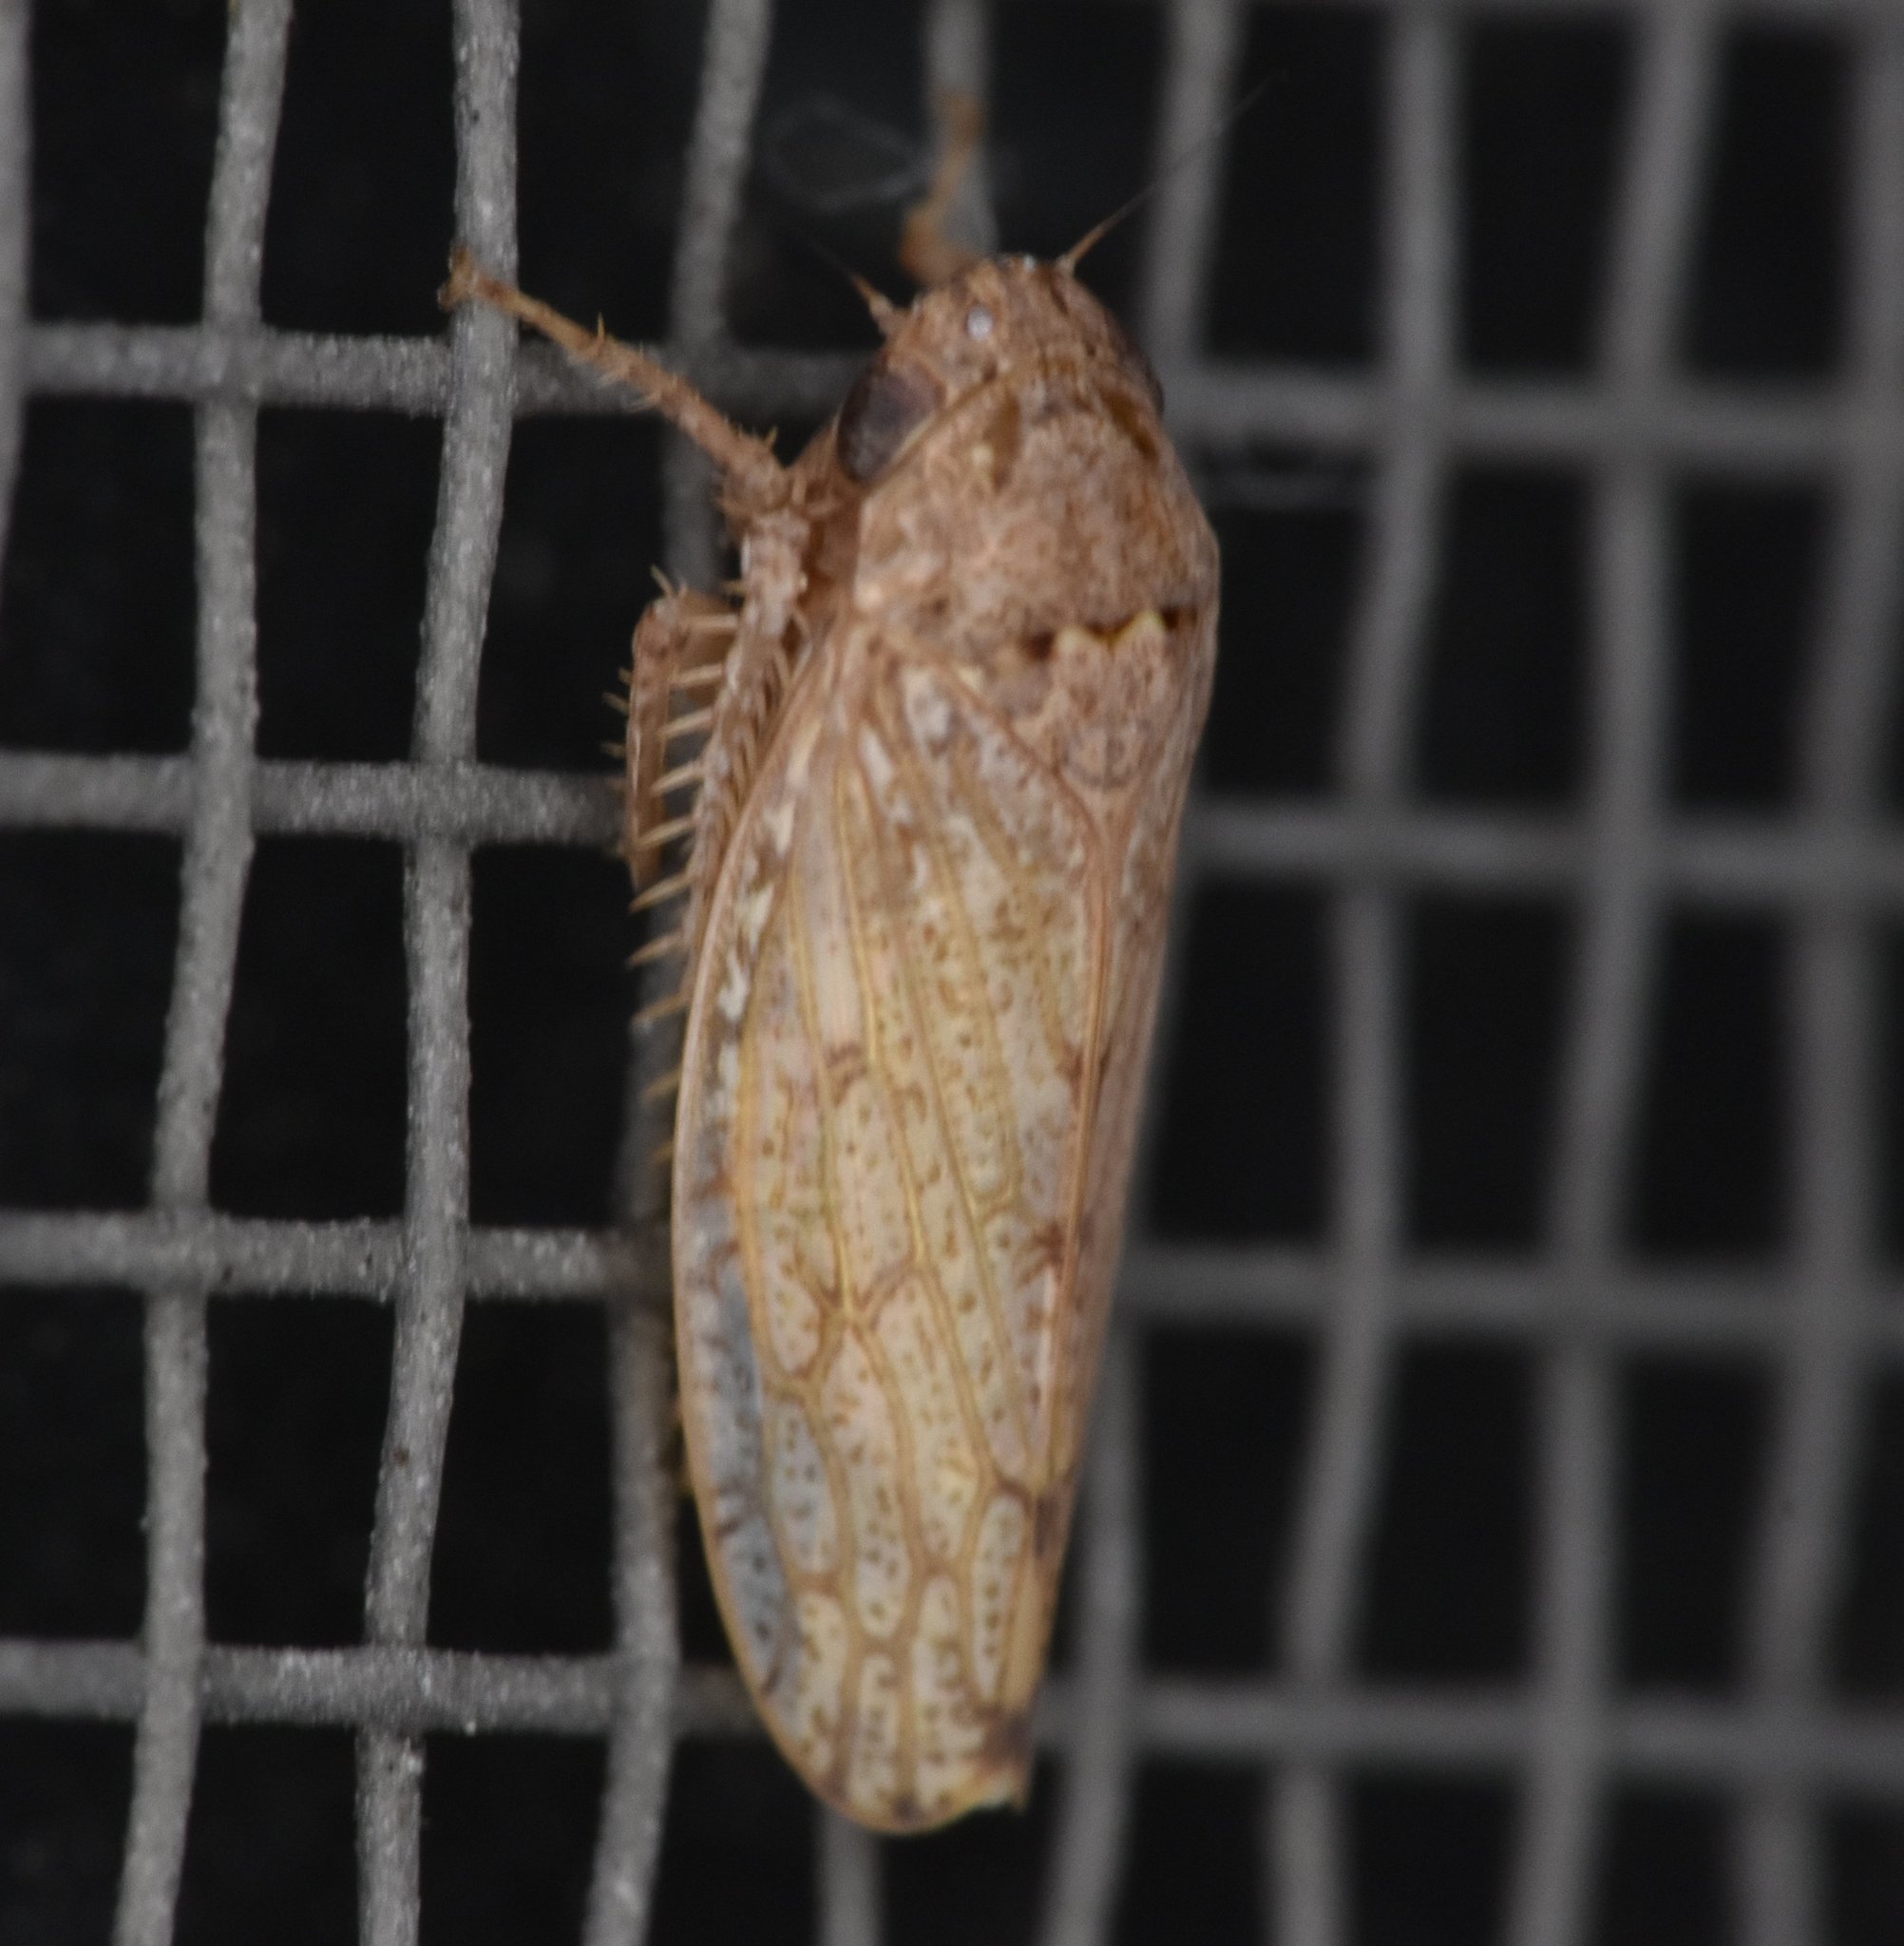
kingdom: Animalia
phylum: Arthropoda
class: Insecta
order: Hemiptera
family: Cicadellidae
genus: Curtara
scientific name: Curtara insularis
